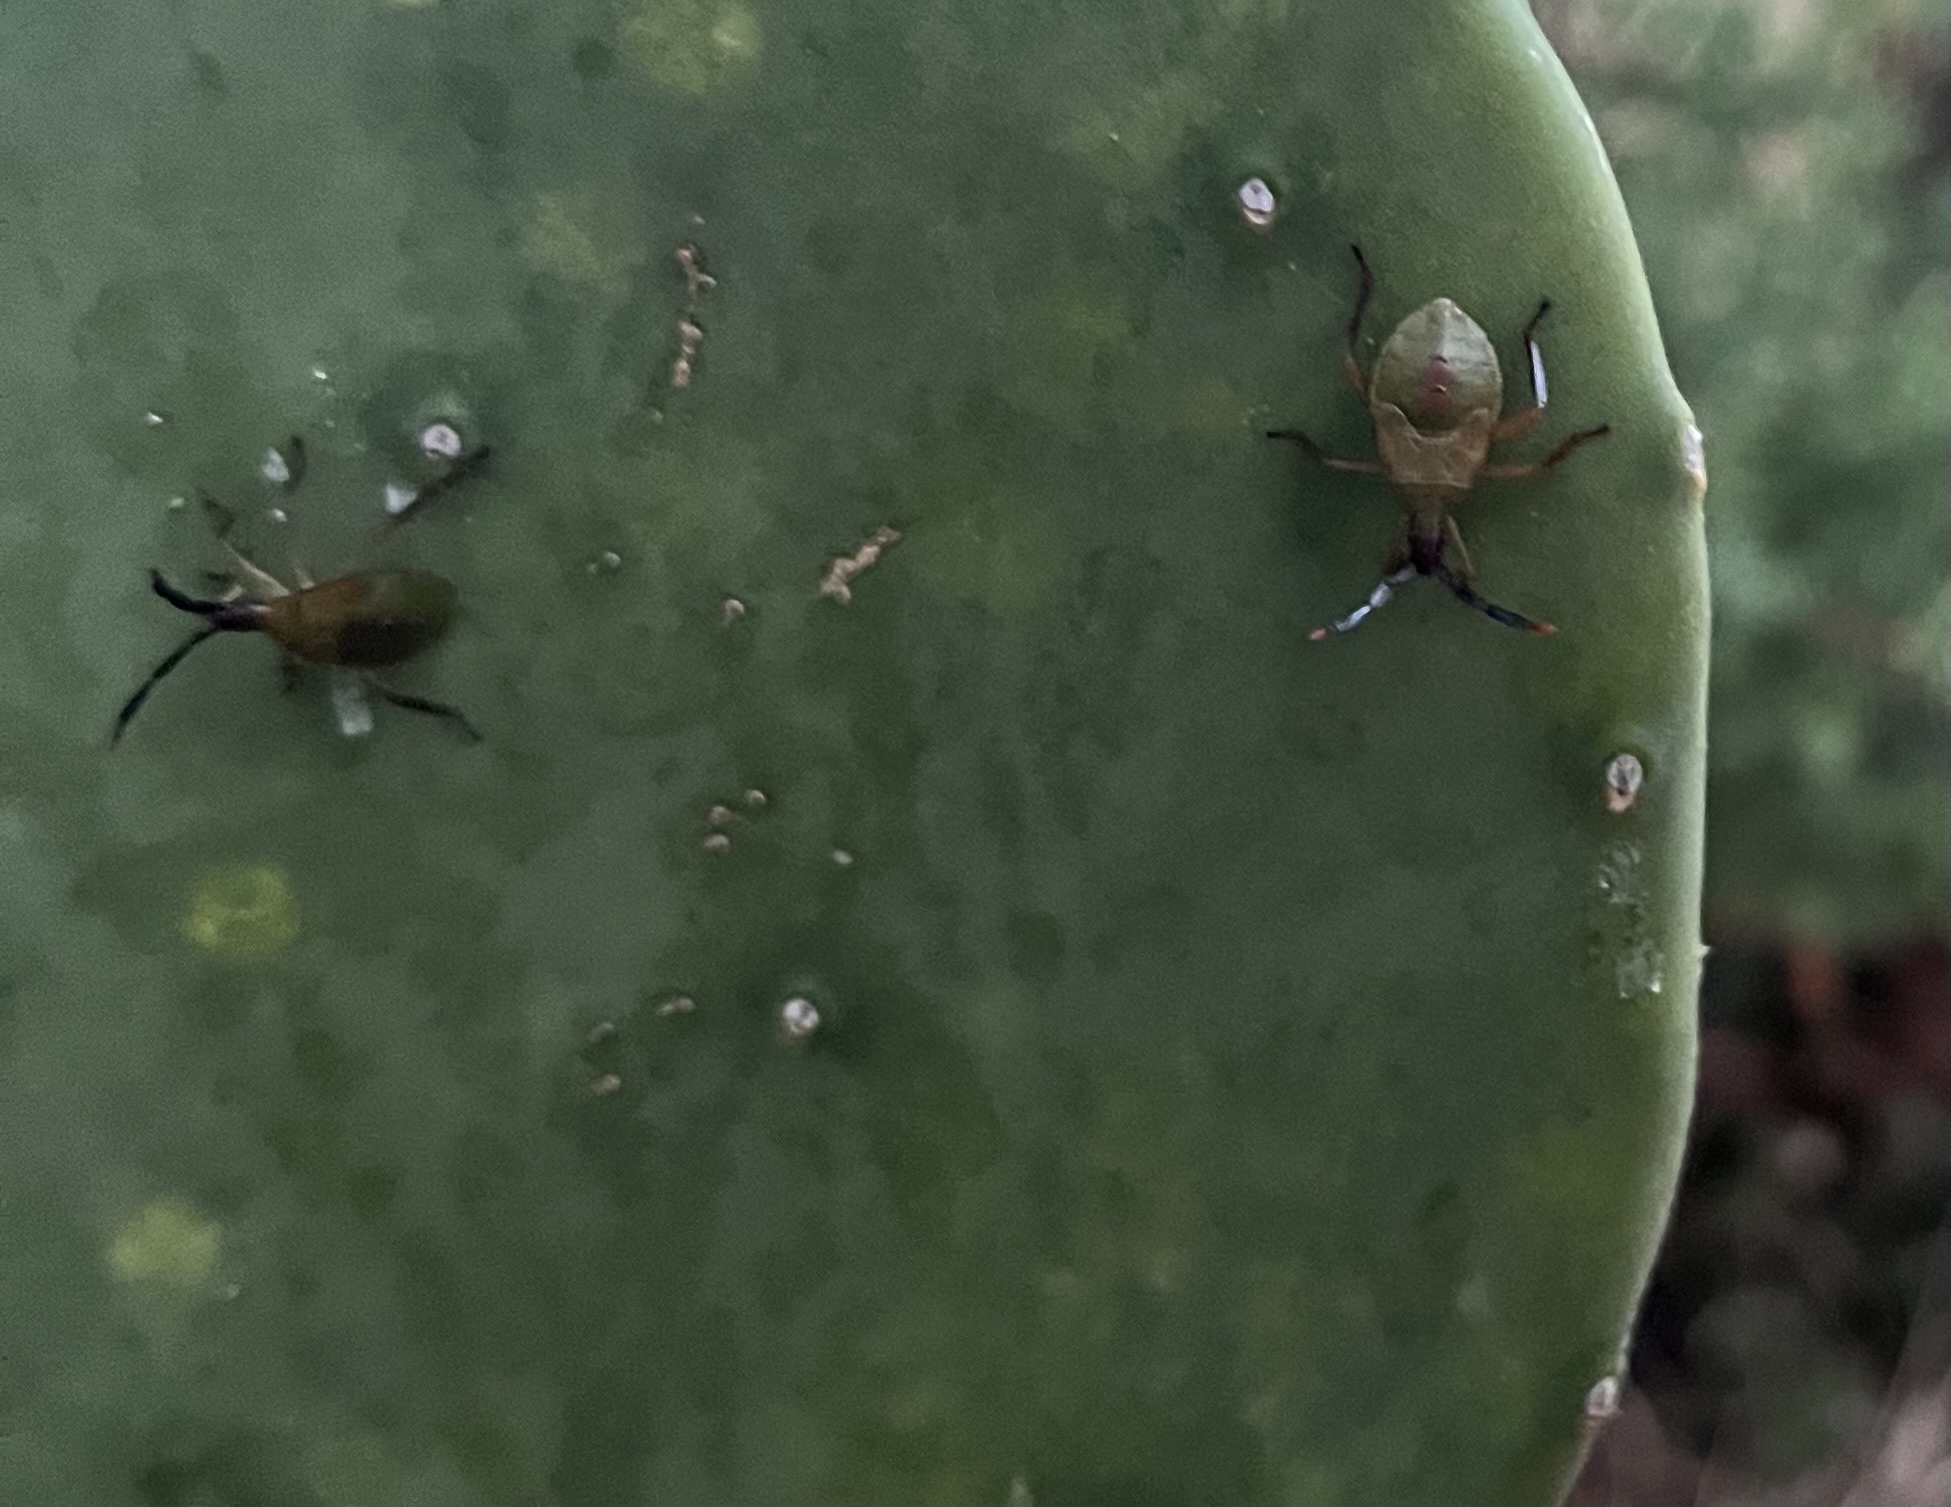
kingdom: Animalia
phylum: Arthropoda
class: Insecta
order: Hemiptera
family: Coreidae
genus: Chelinidea
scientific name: Chelinidea vittiger
